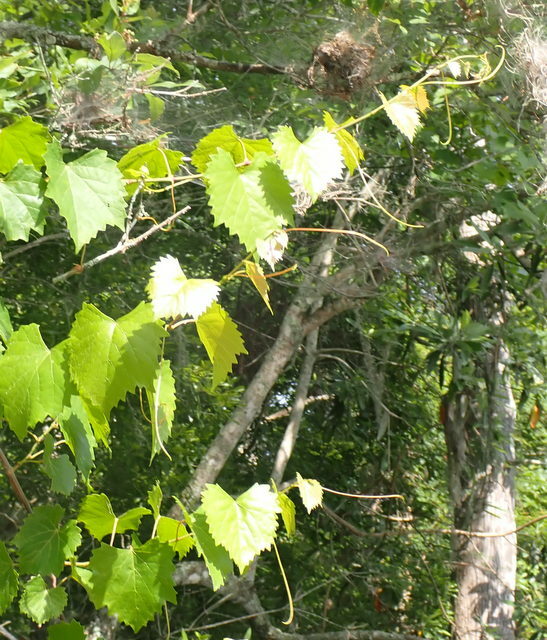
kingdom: Plantae
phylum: Tracheophyta
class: Magnoliopsida
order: Vitales
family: Vitaceae
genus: Vitis
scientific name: Vitis rotundifolia
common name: Muscadine grape
